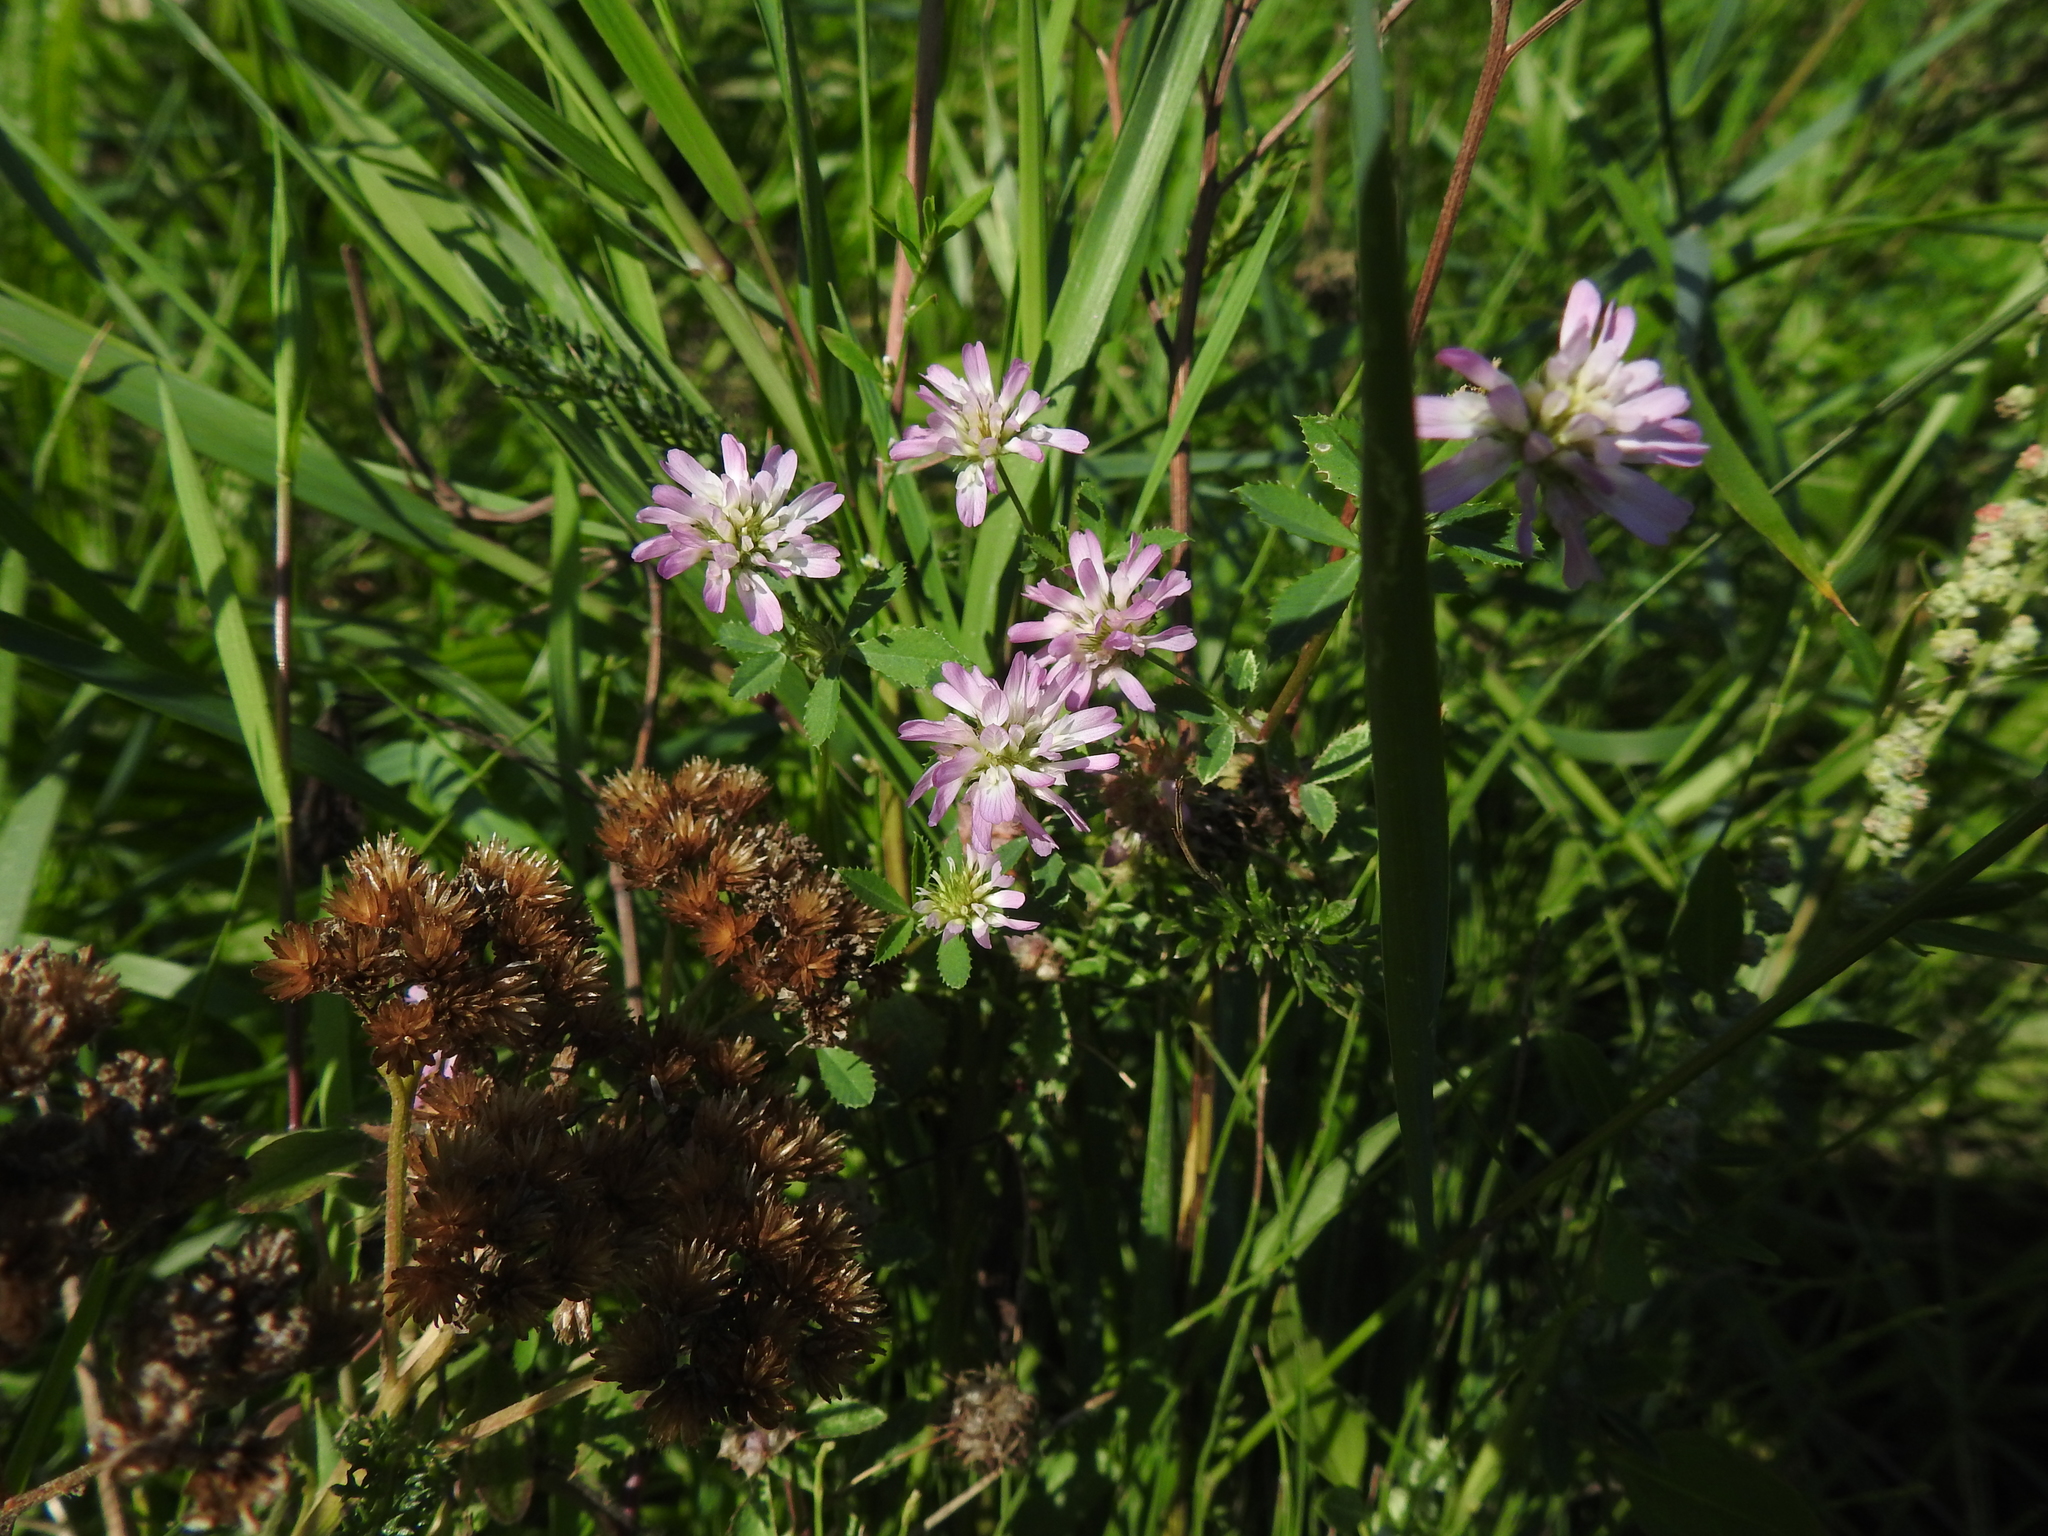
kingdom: Plantae
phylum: Tracheophyta
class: Magnoliopsida
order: Fabales
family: Fabaceae
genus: Trifolium
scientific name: Trifolium resupinatum
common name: Reversed clover
